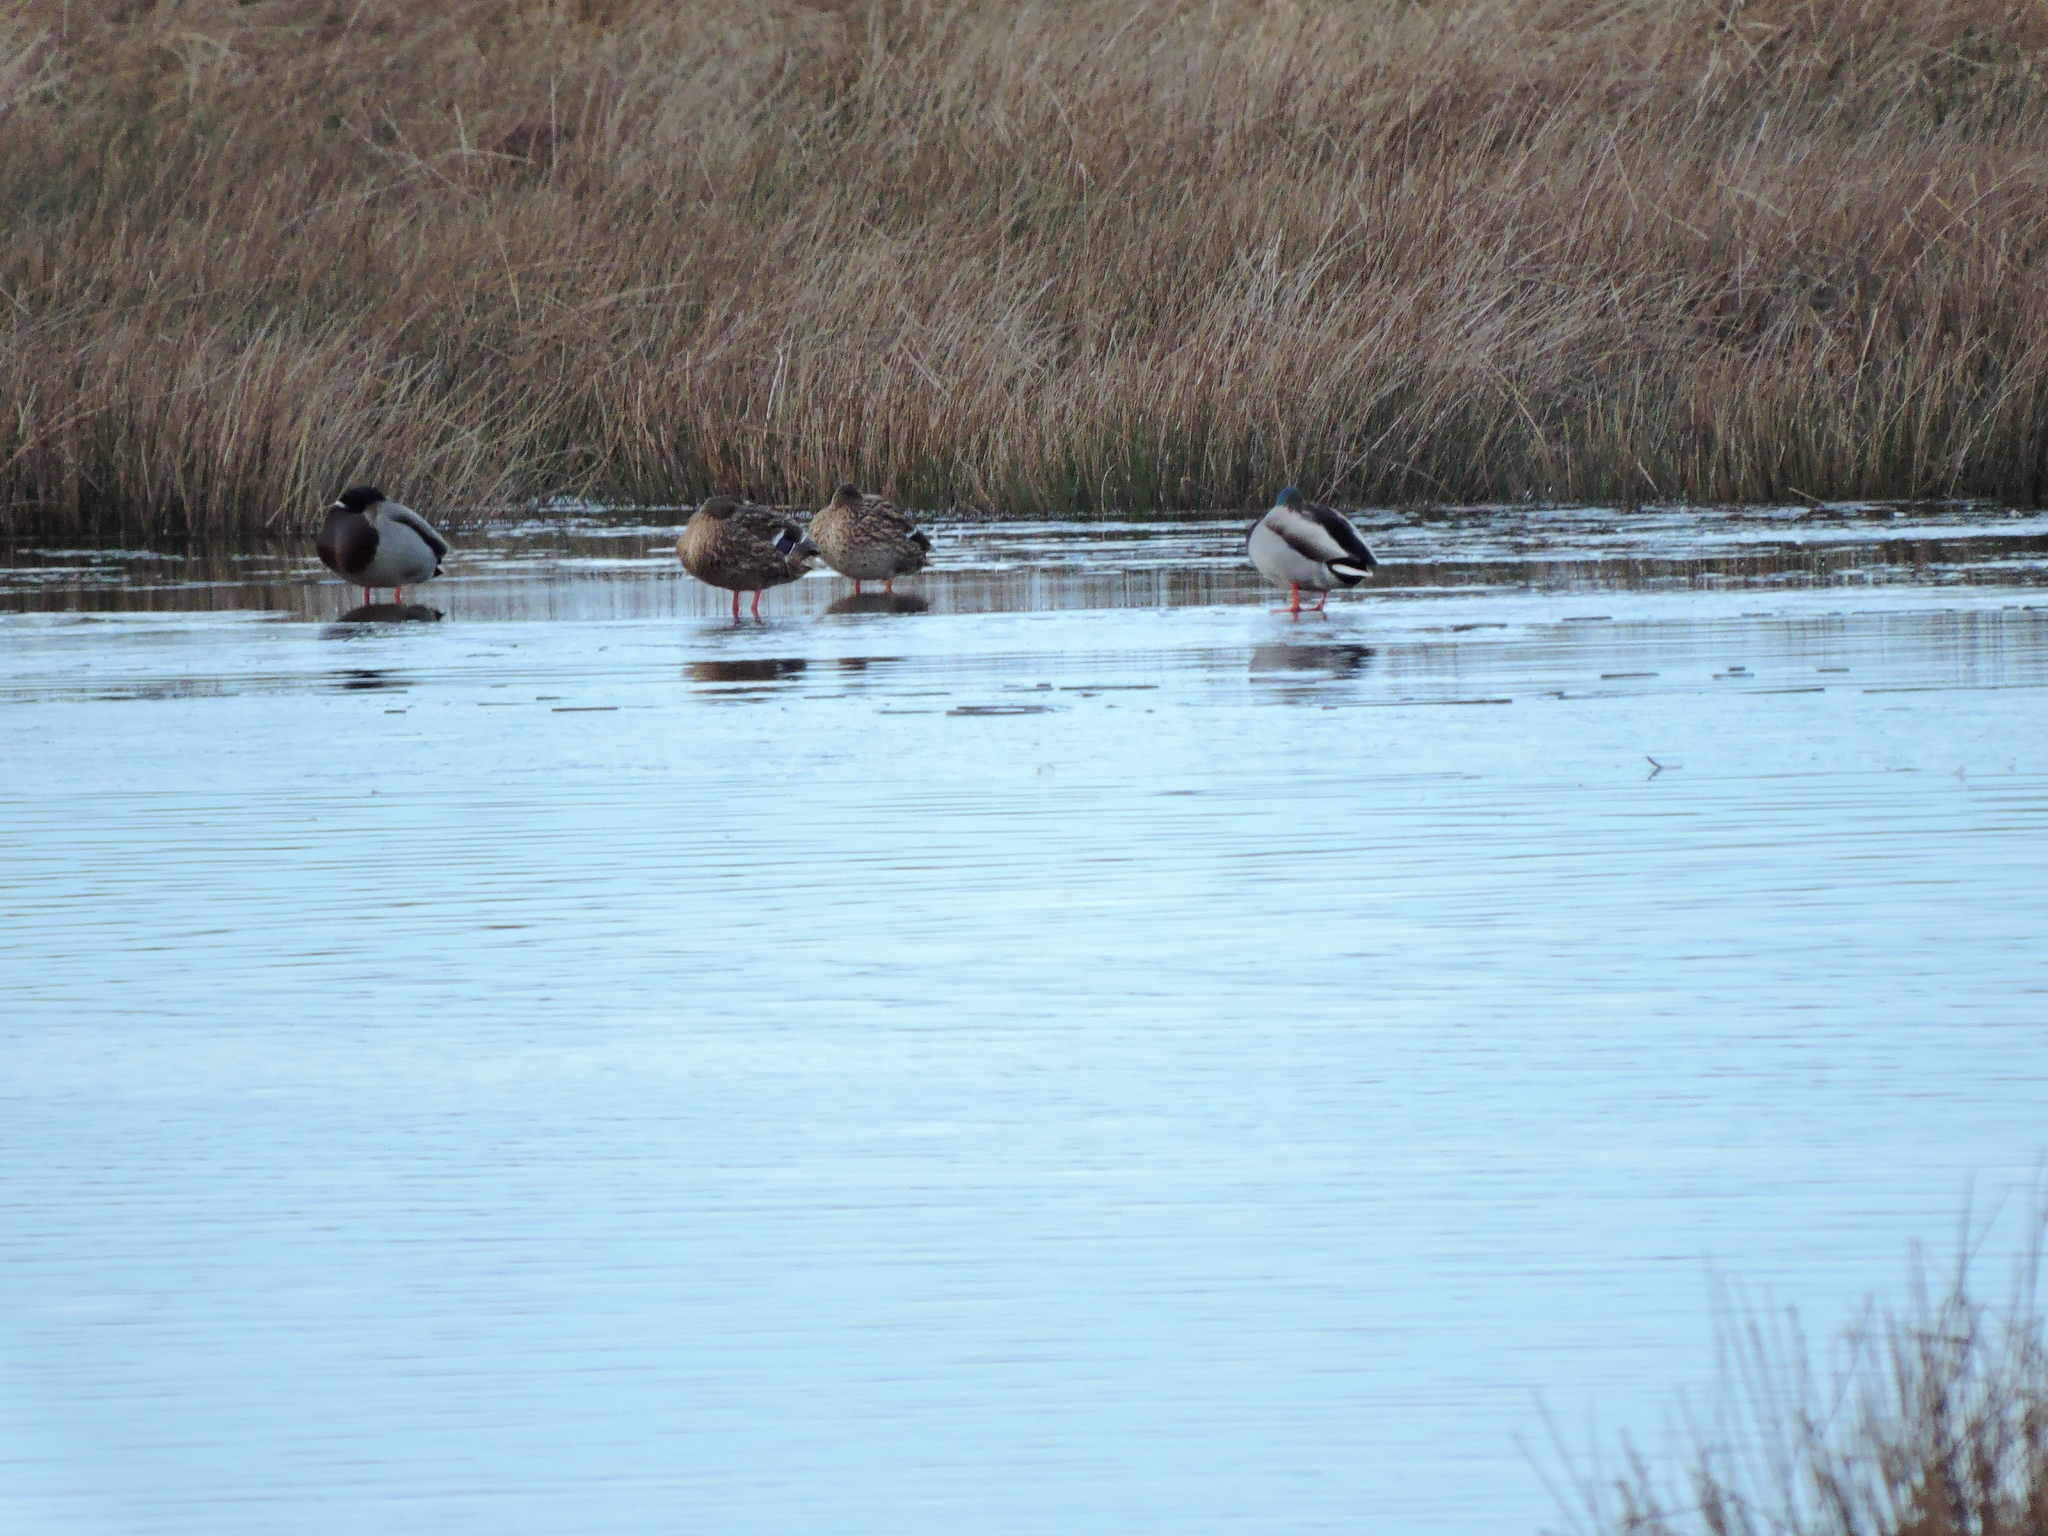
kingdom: Animalia
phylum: Chordata
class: Aves
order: Anseriformes
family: Anatidae
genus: Anas
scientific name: Anas platyrhynchos
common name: Mallard
